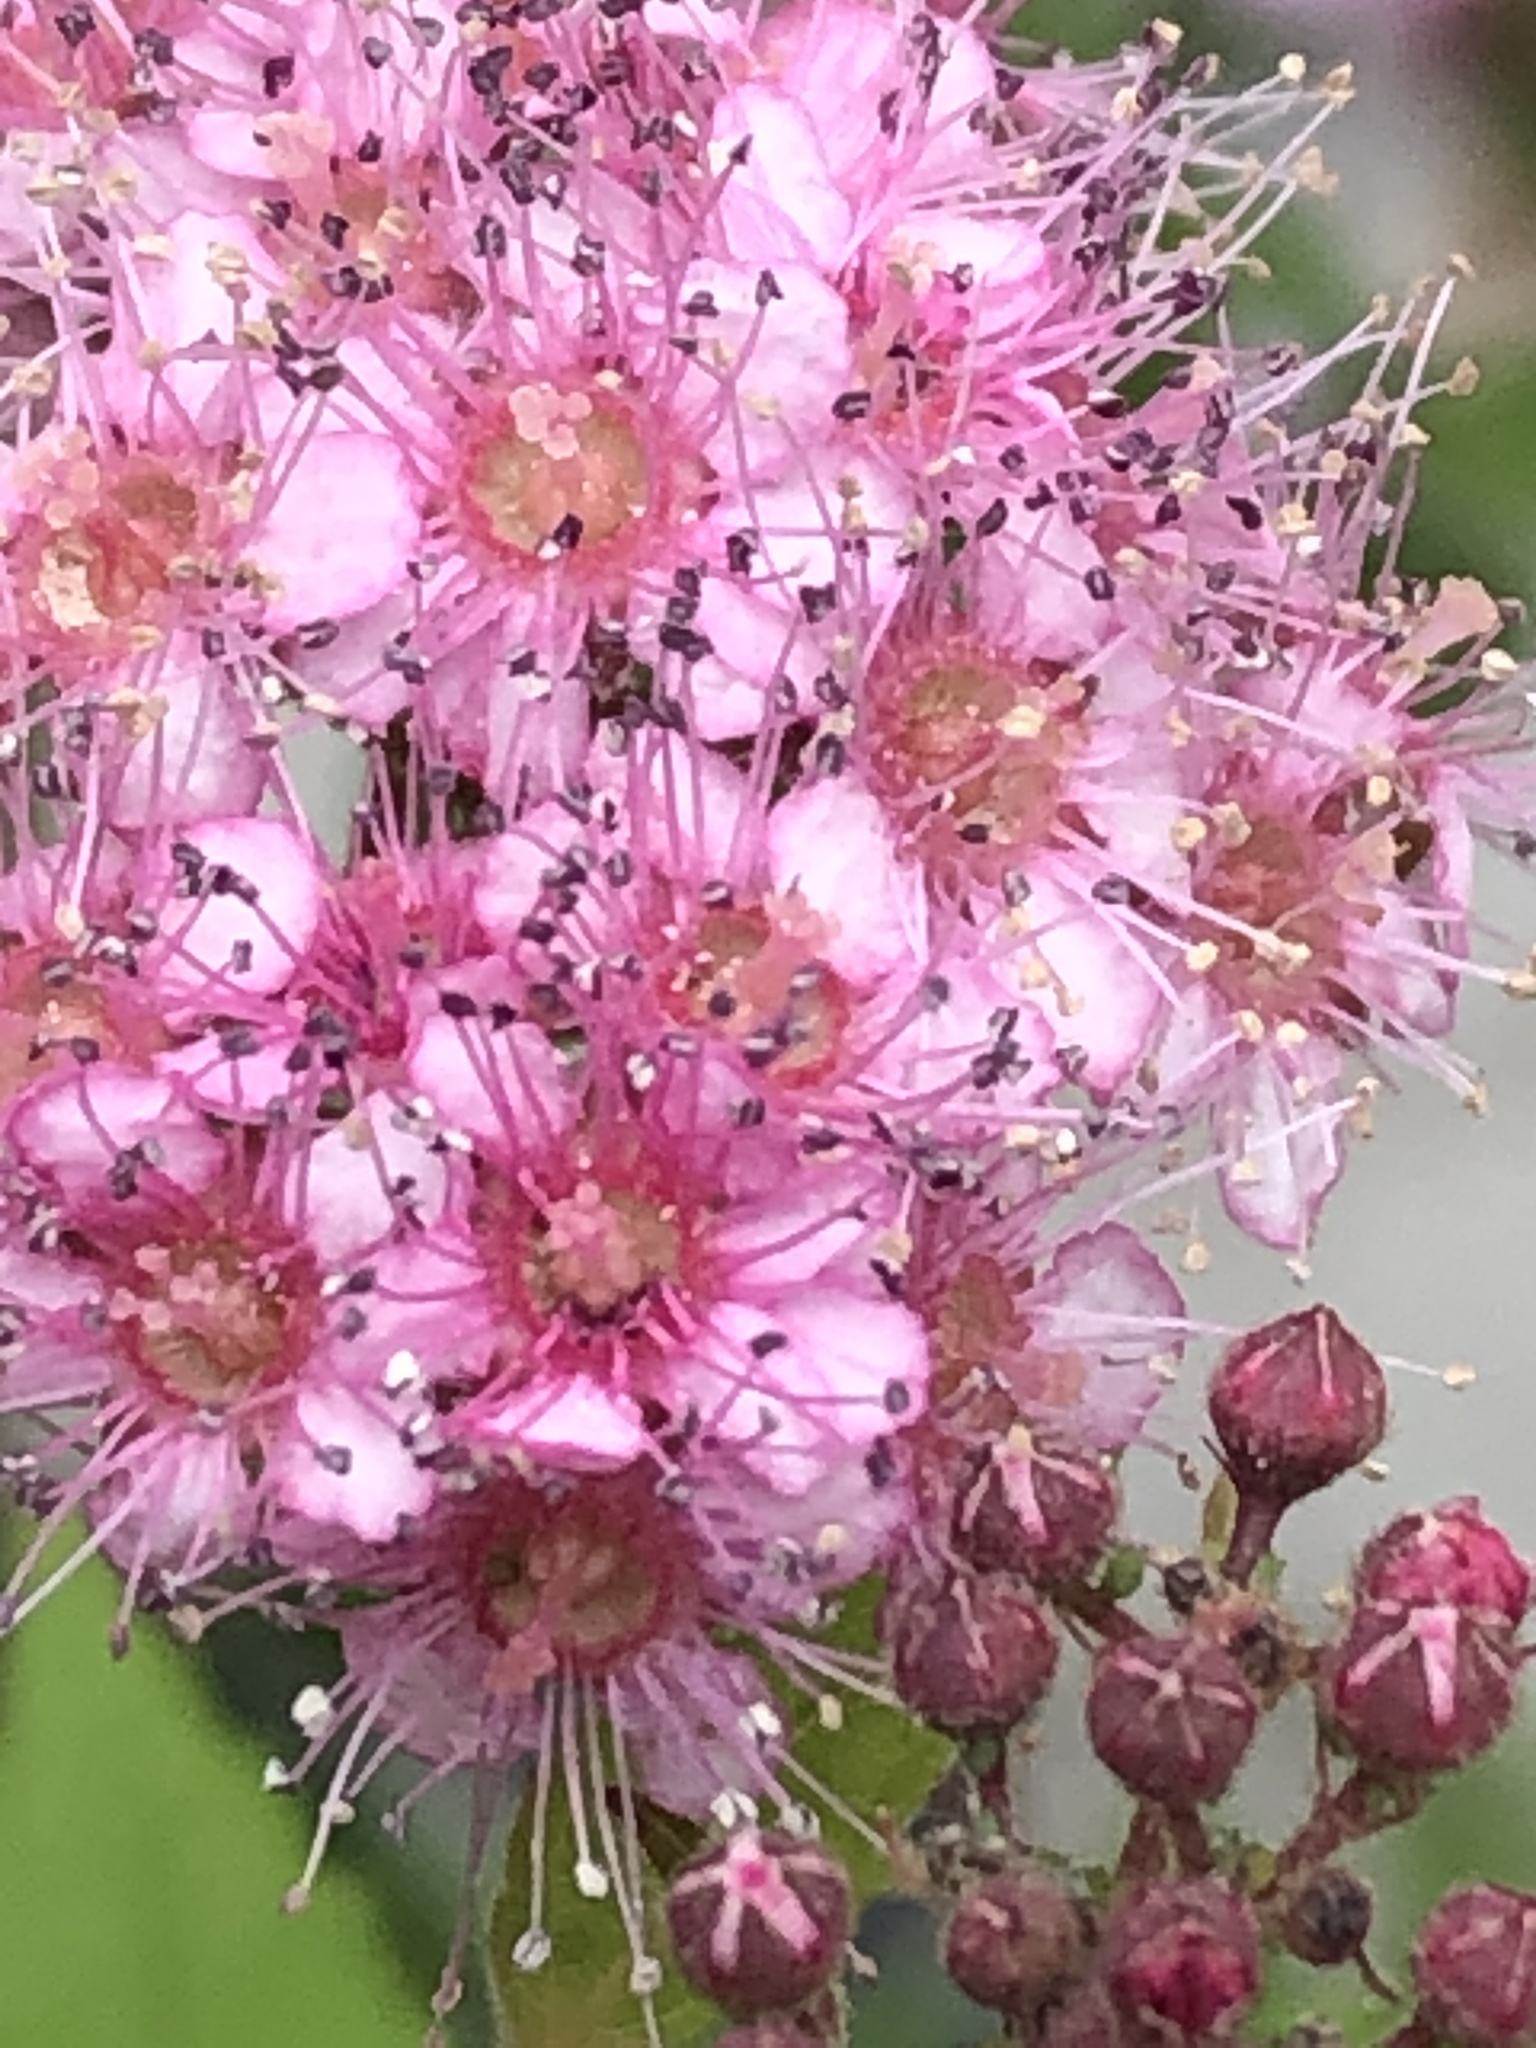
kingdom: Plantae
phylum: Tracheophyta
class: Magnoliopsida
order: Rosales
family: Rosaceae
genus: Spiraea
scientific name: Spiraea japonica
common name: Japanese spiraea
